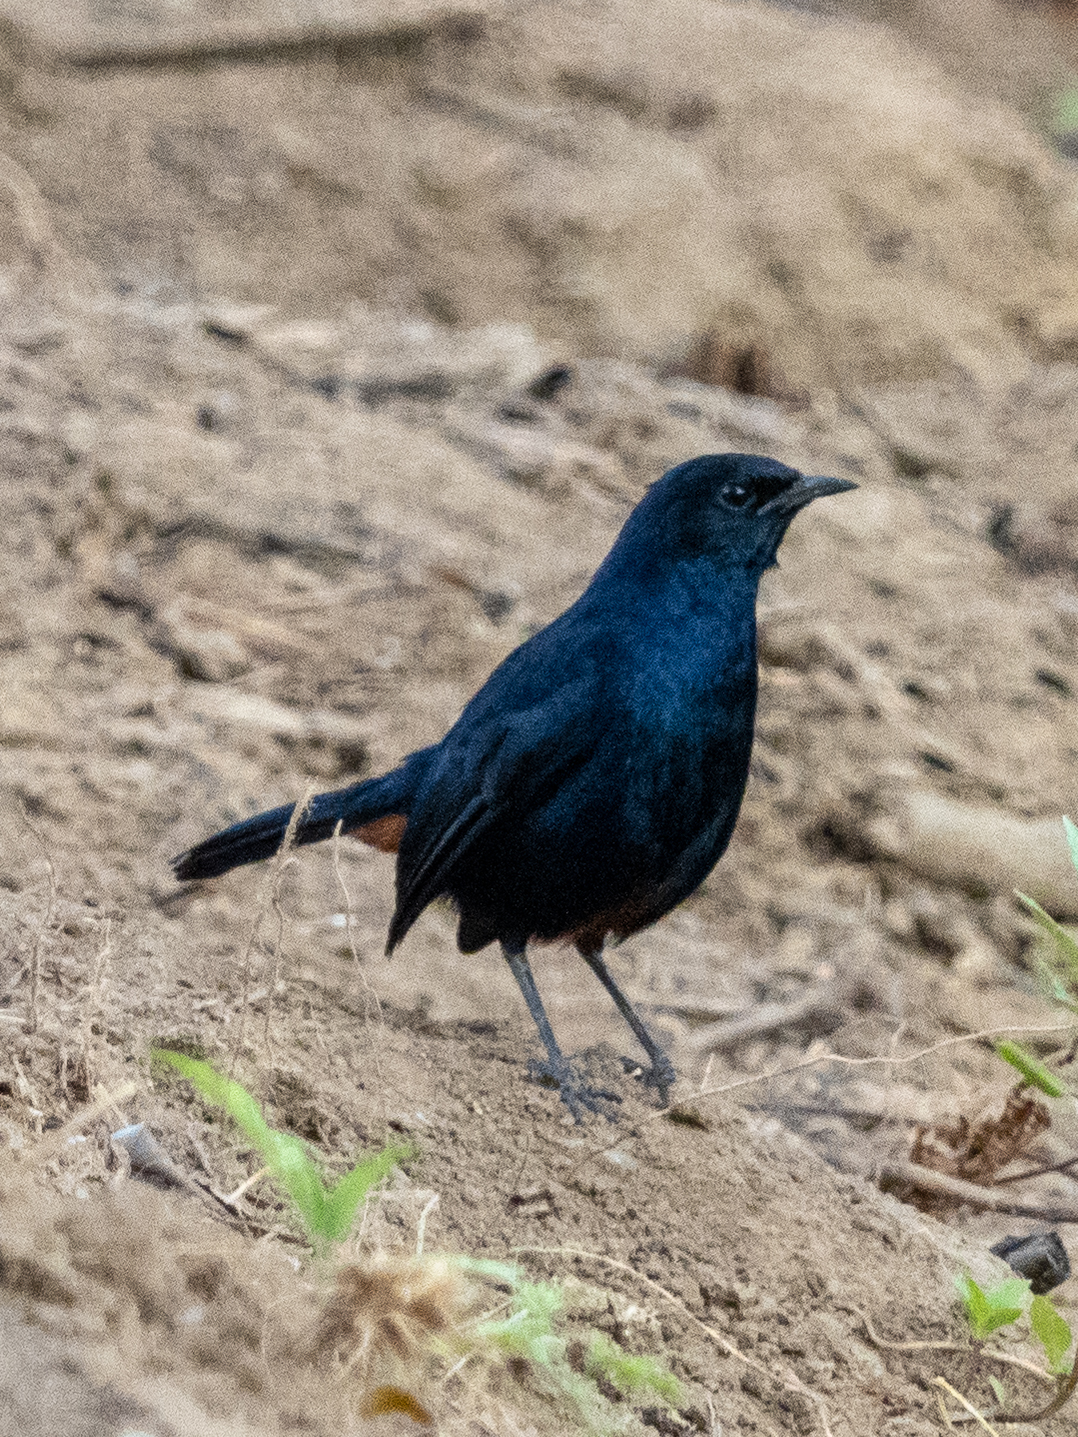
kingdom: Animalia
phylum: Chordata
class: Aves
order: Passeriformes
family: Muscicapidae
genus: Saxicoloides
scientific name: Saxicoloides fulicatus
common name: Indian robin
